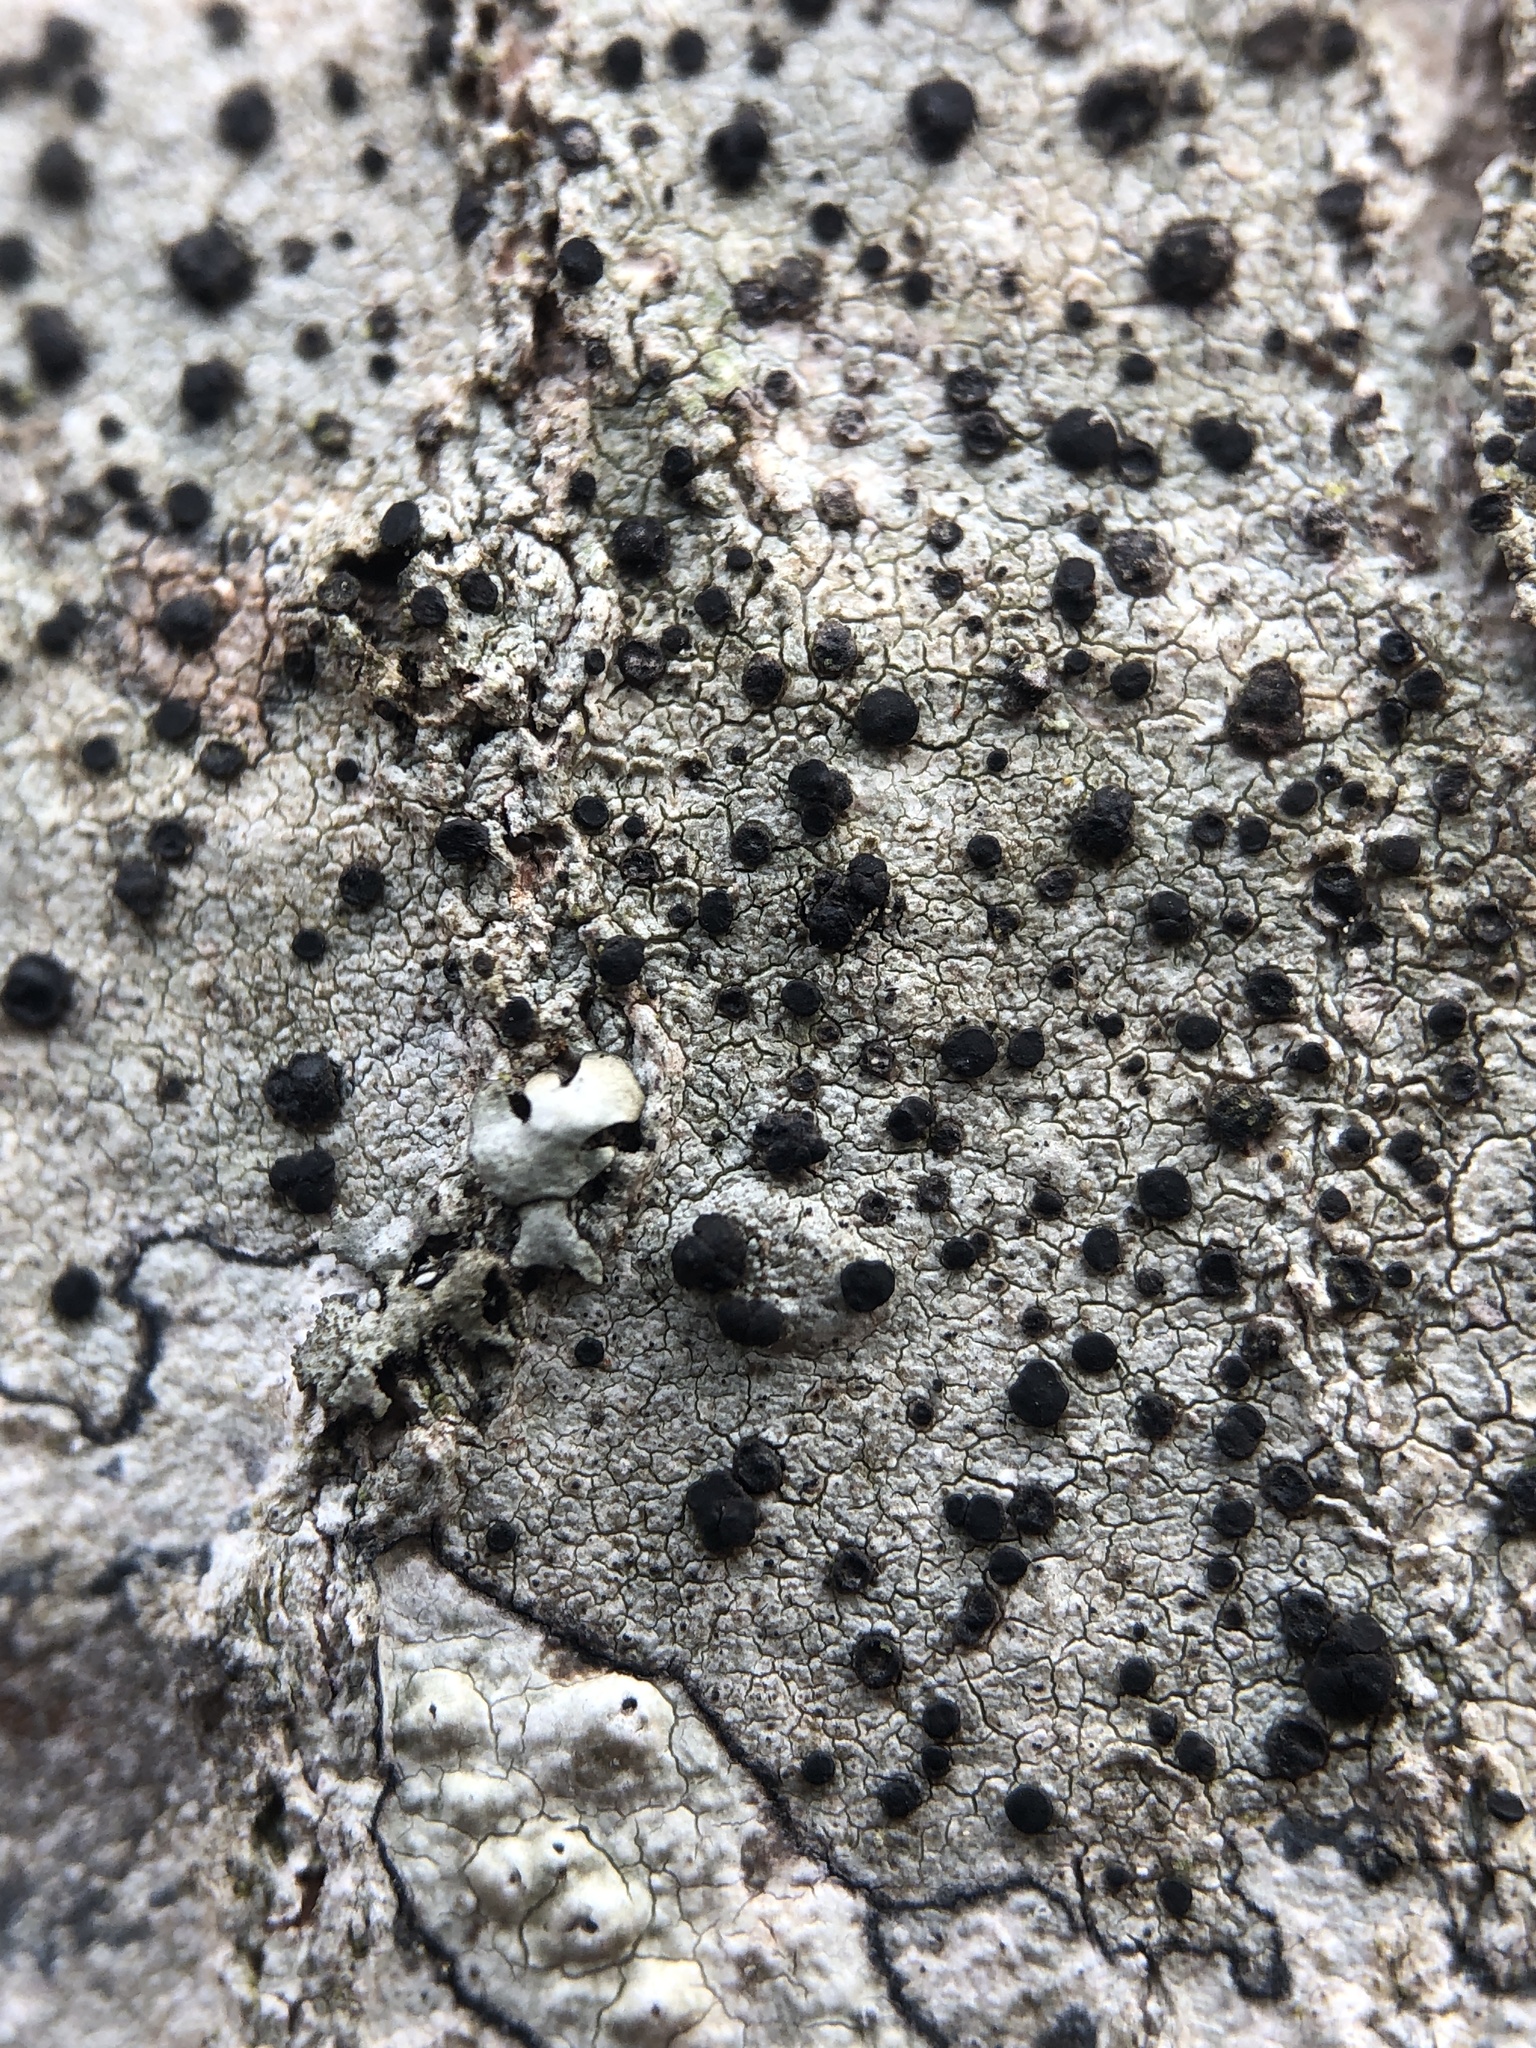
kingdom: Fungi
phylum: Ascomycota
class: Lecanoromycetes
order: Lecanorales
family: Lecanoraceae
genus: Lecidella
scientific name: Lecidella elaeochroma
